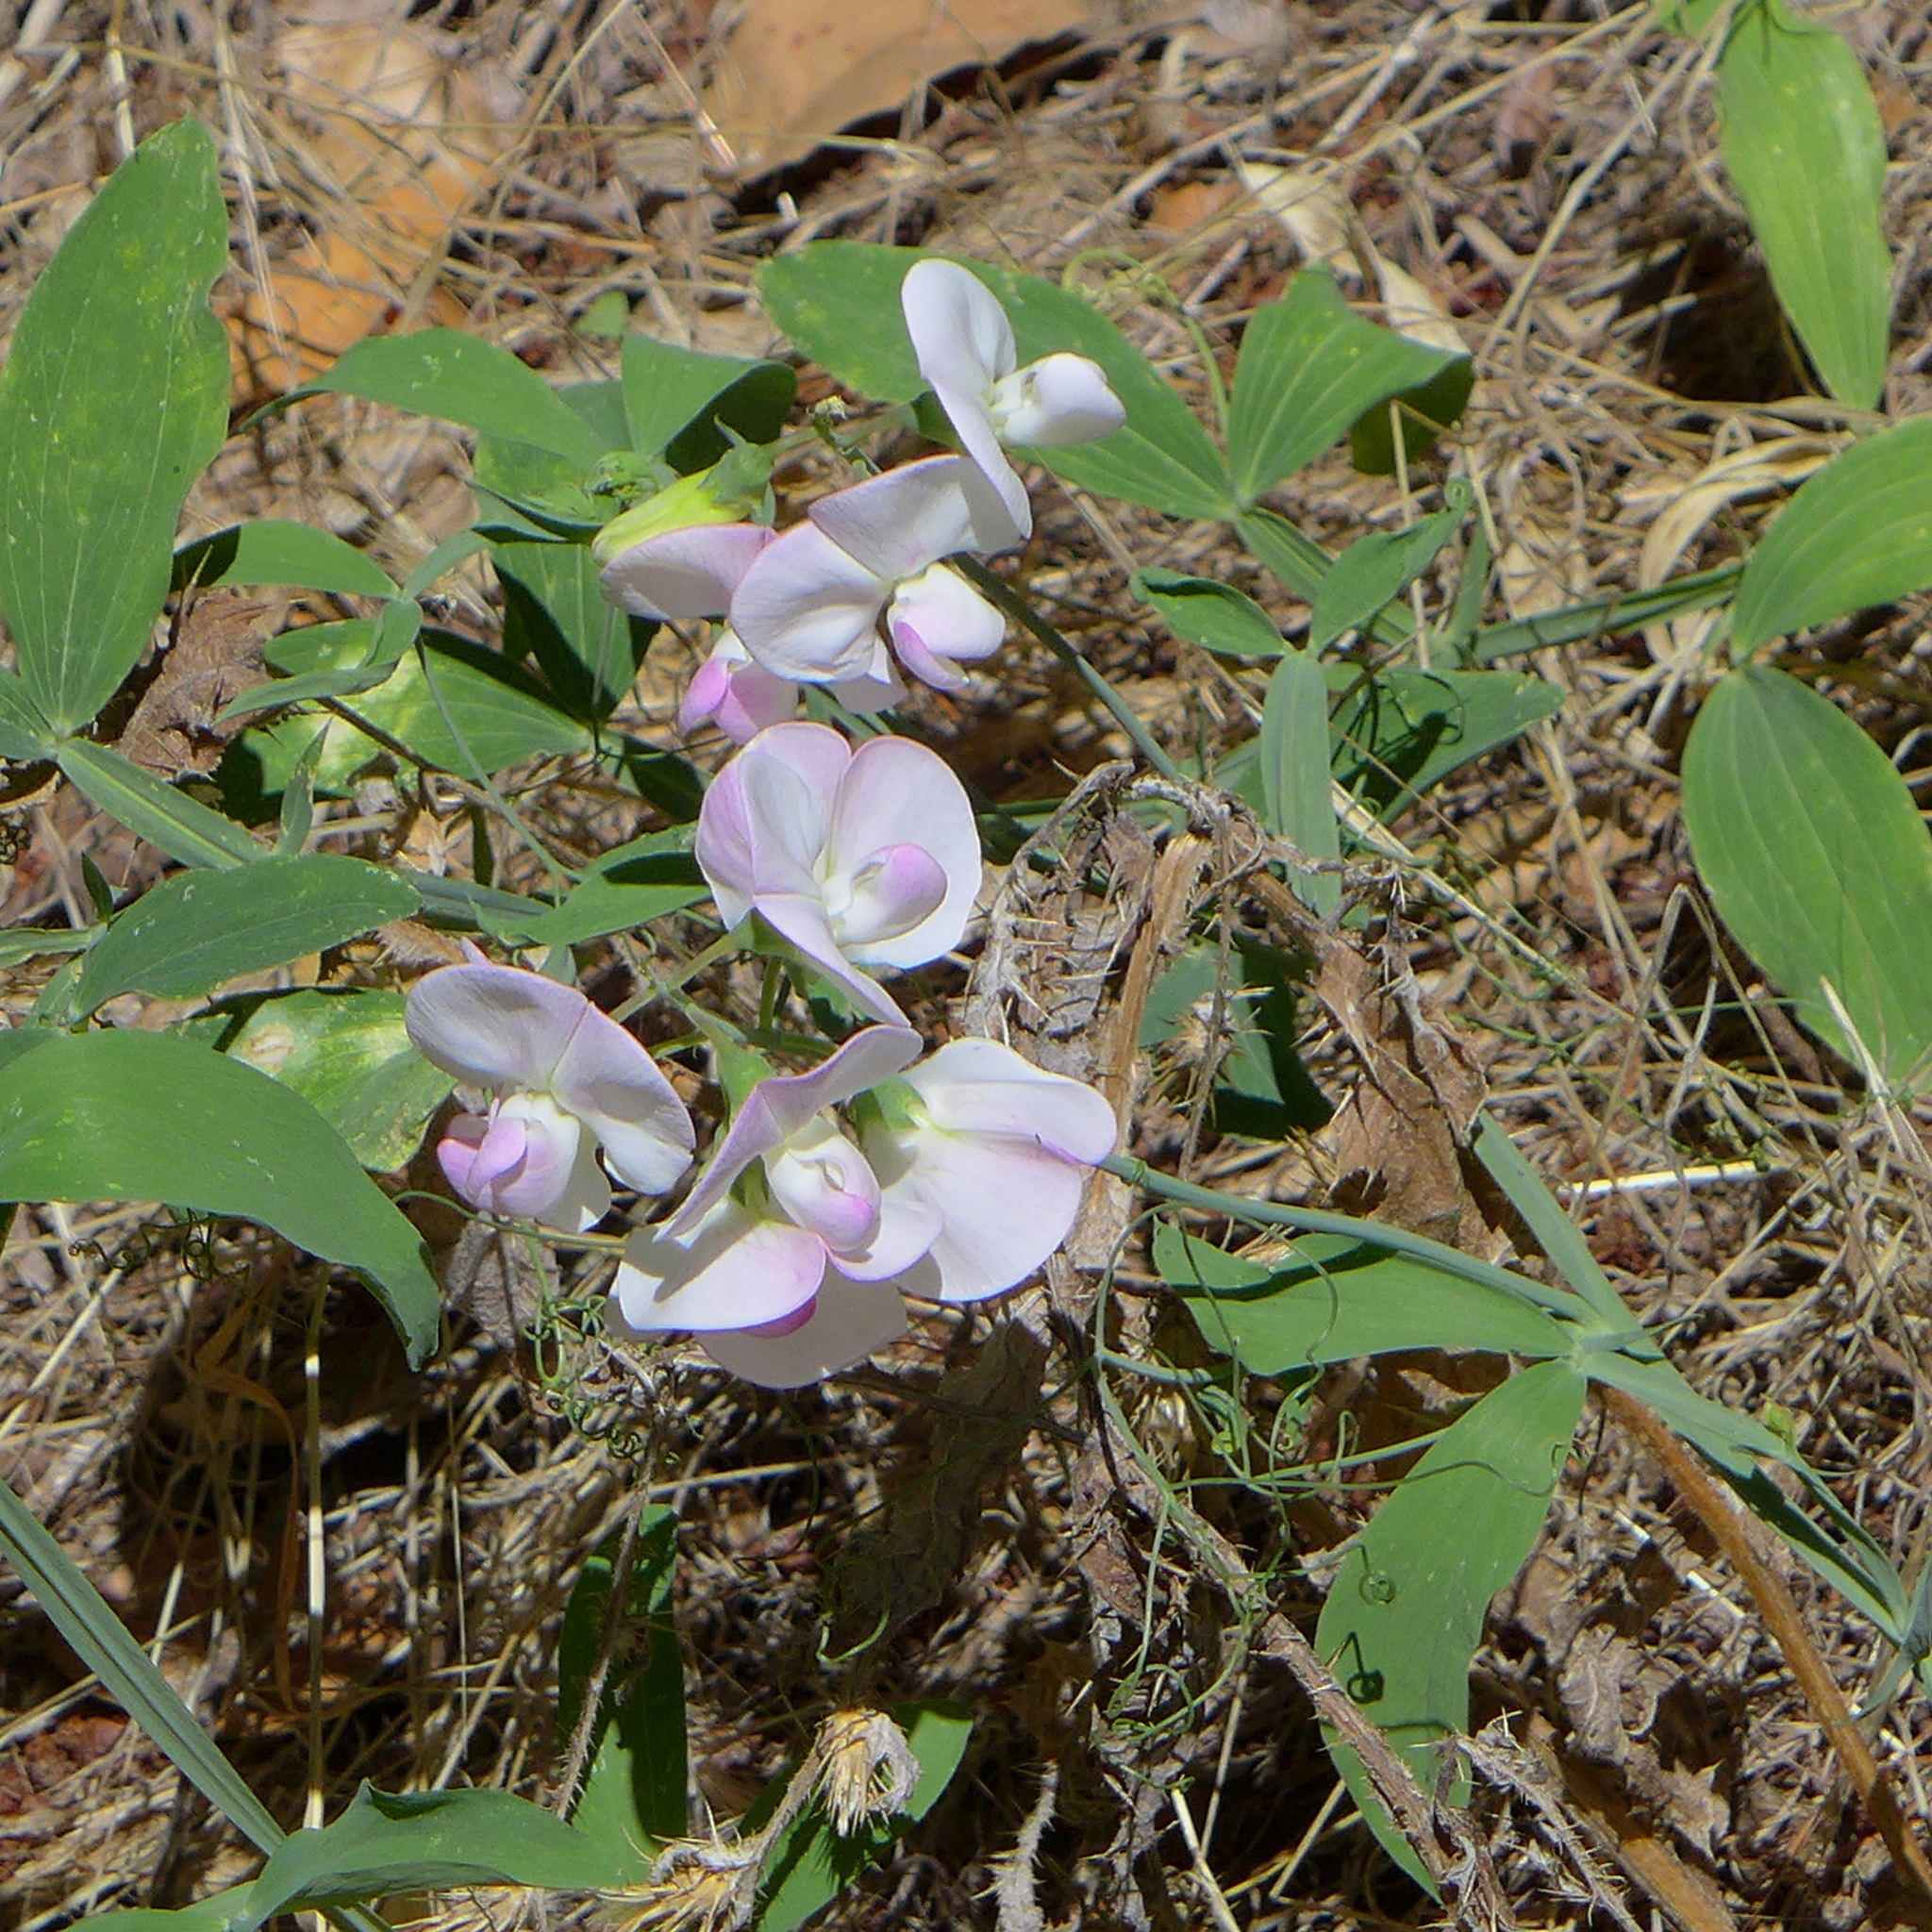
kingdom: Plantae
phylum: Tracheophyta
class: Magnoliopsida
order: Fabales
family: Fabaceae
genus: Lathyrus
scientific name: Lathyrus latifolius
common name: Perennial pea
